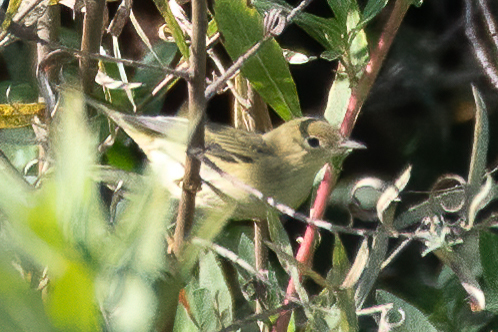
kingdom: Animalia
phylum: Chordata
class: Aves
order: Passeriformes
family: Parulidae
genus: Setophaga
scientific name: Setophaga petechia
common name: Yellow warbler
